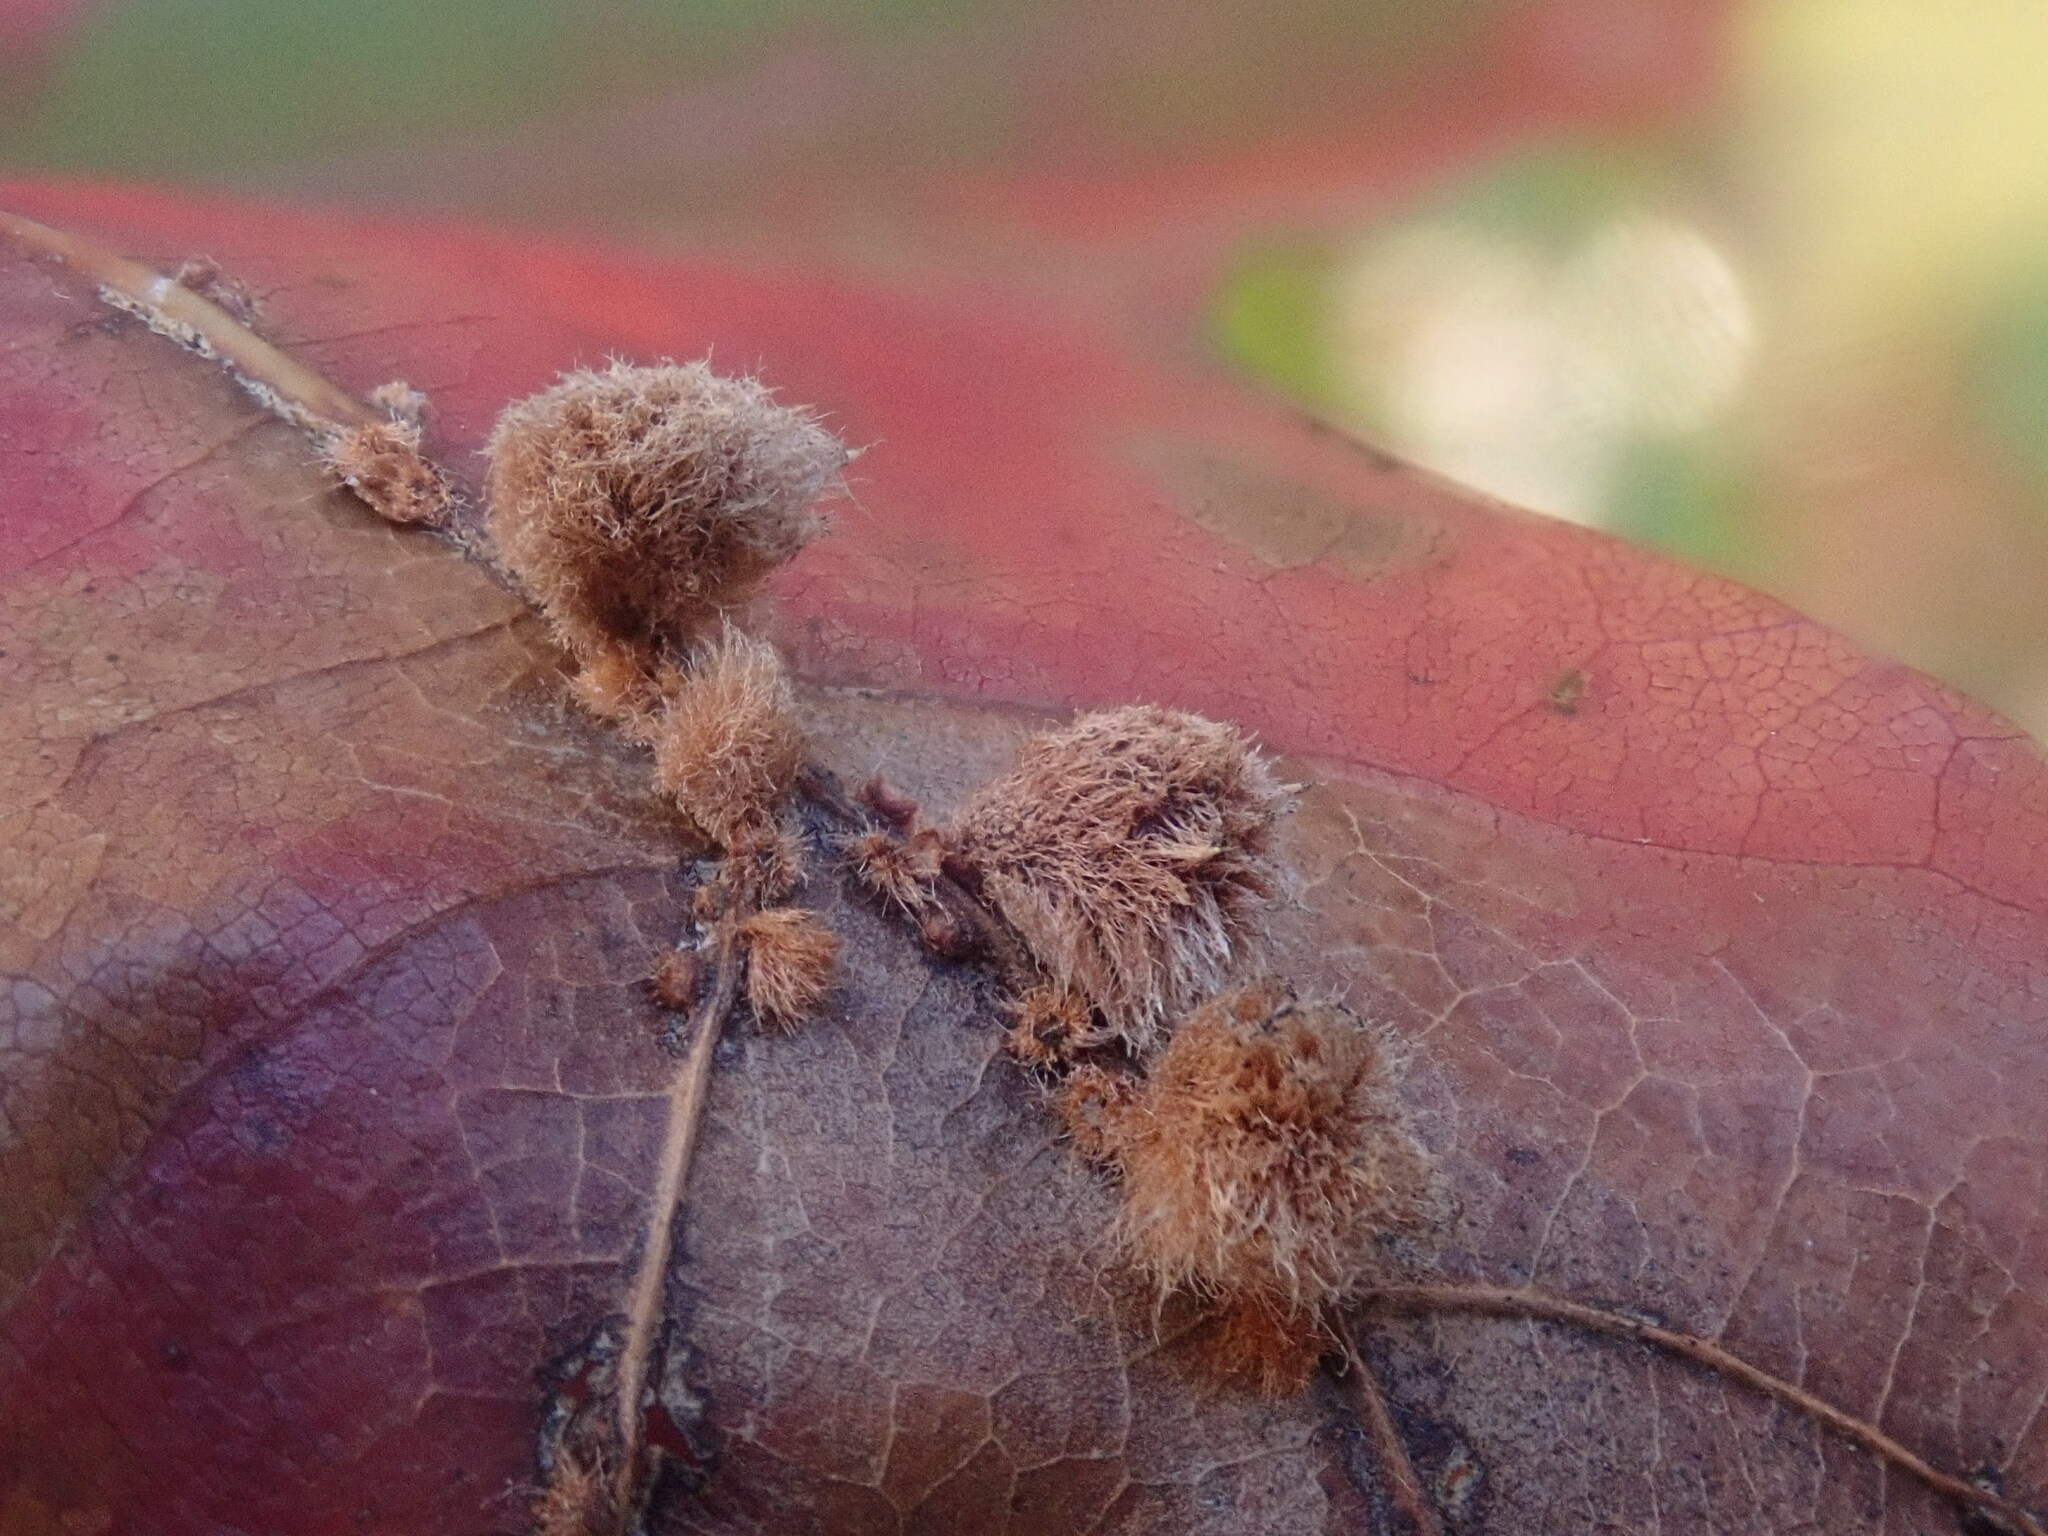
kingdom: Animalia
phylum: Arthropoda
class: Insecta
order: Hymenoptera
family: Cynipidae
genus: Callirhytis
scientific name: Callirhytis
